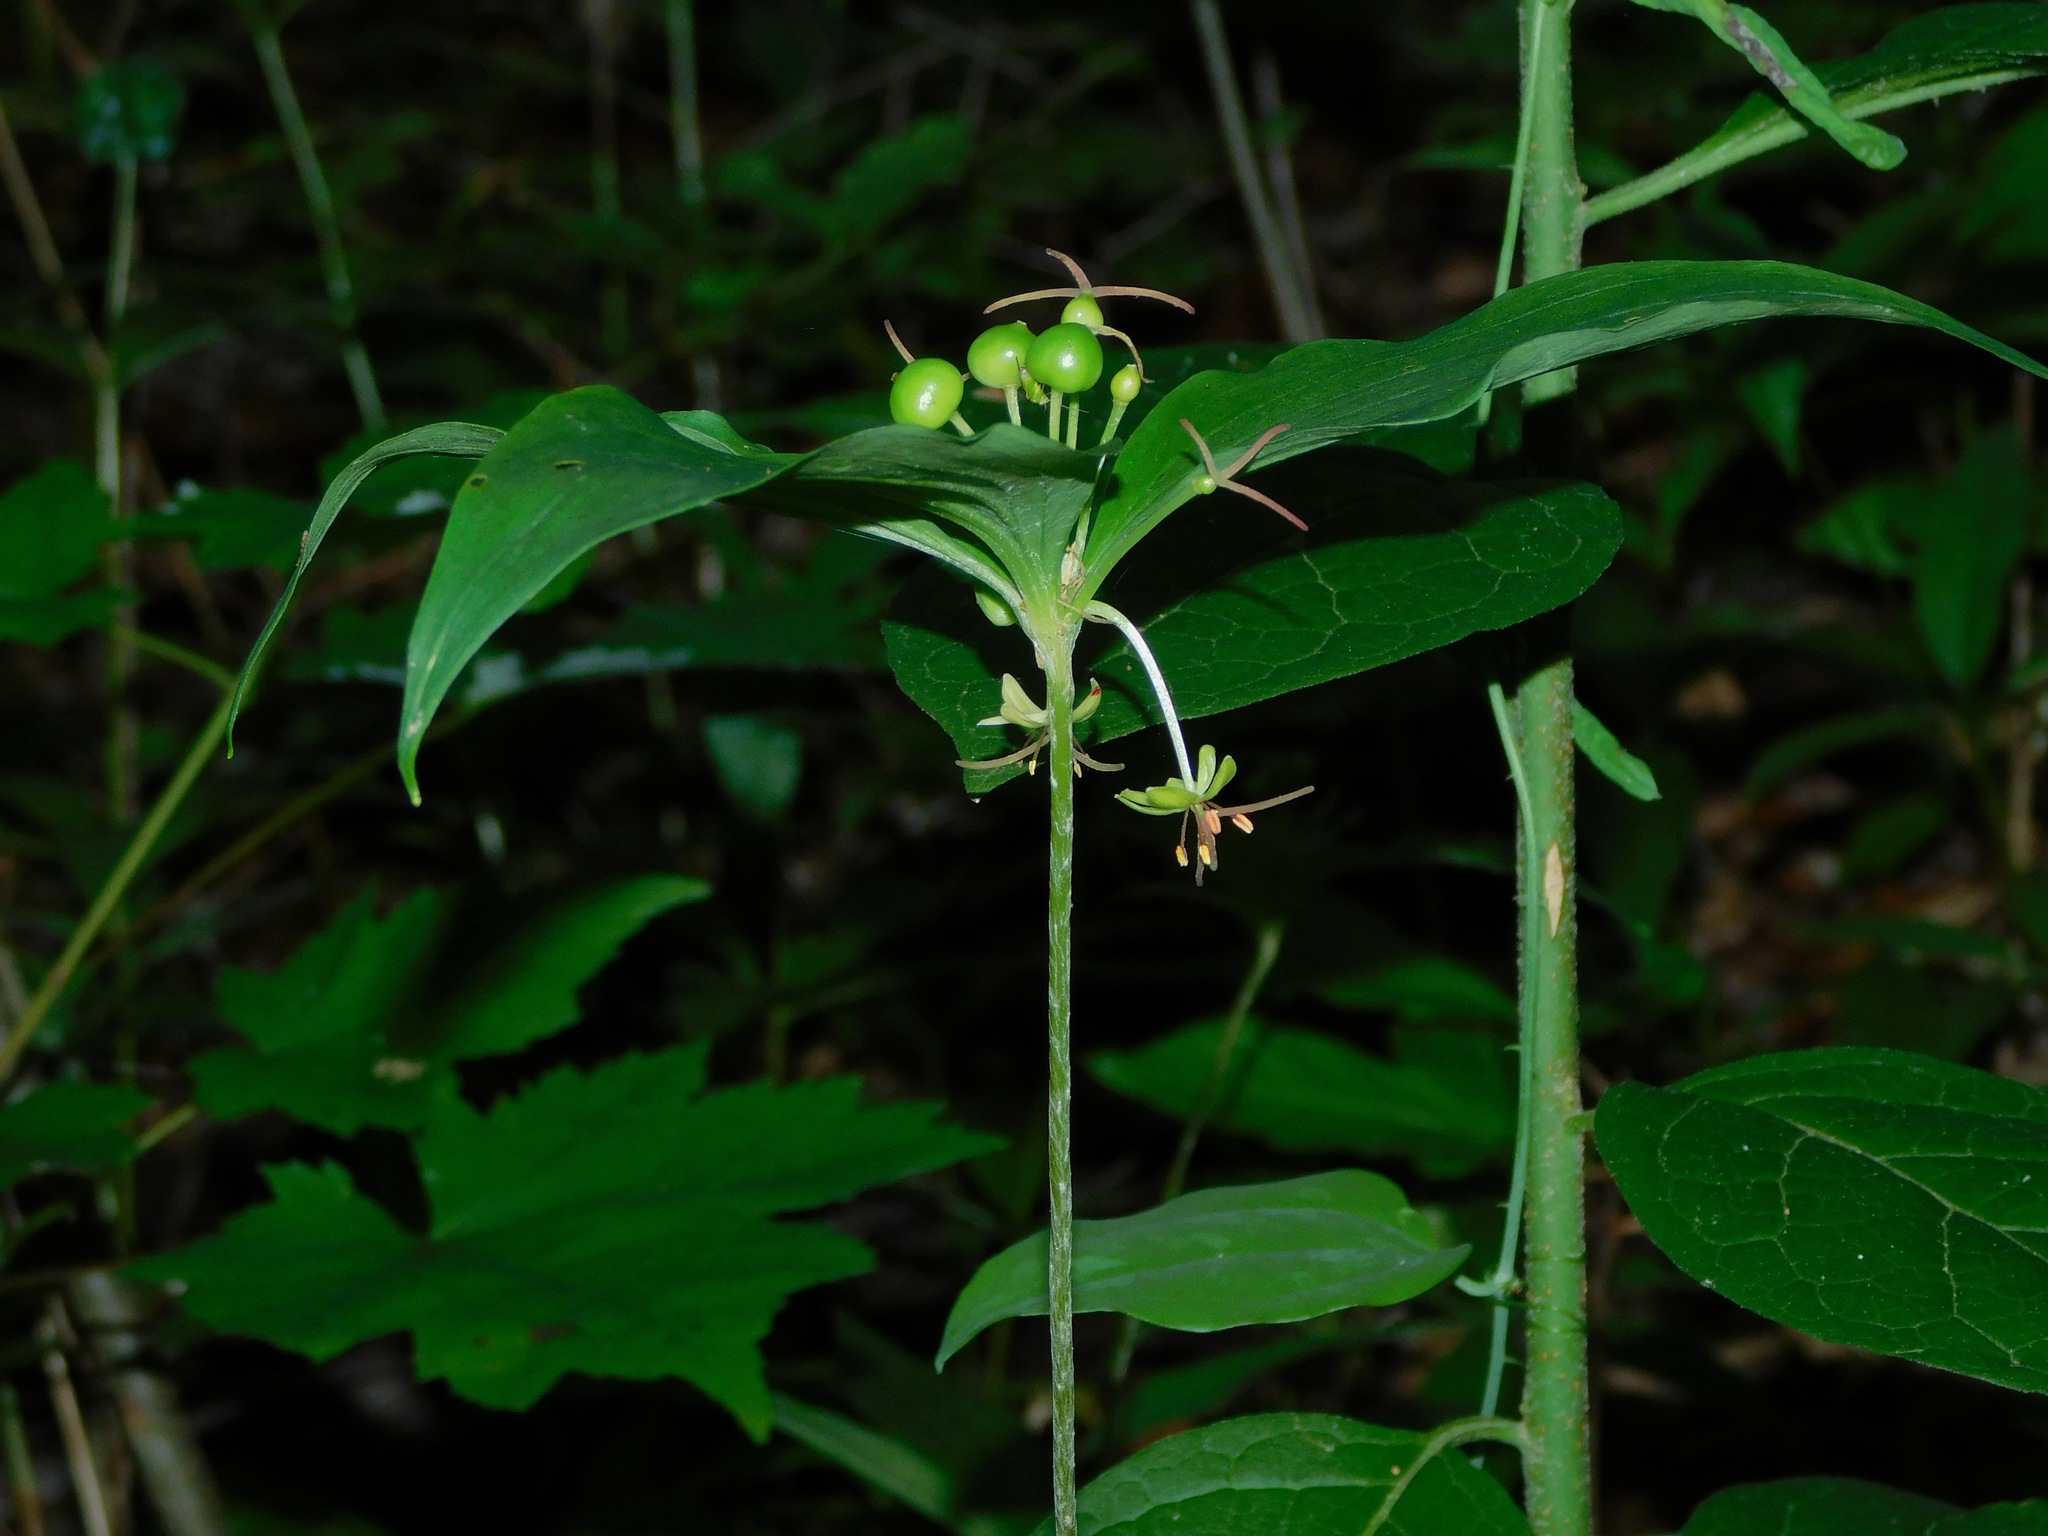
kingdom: Plantae
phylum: Tracheophyta
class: Liliopsida
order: Liliales
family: Liliaceae
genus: Medeola
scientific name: Medeola virginiana
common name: Indian cucumber-root
